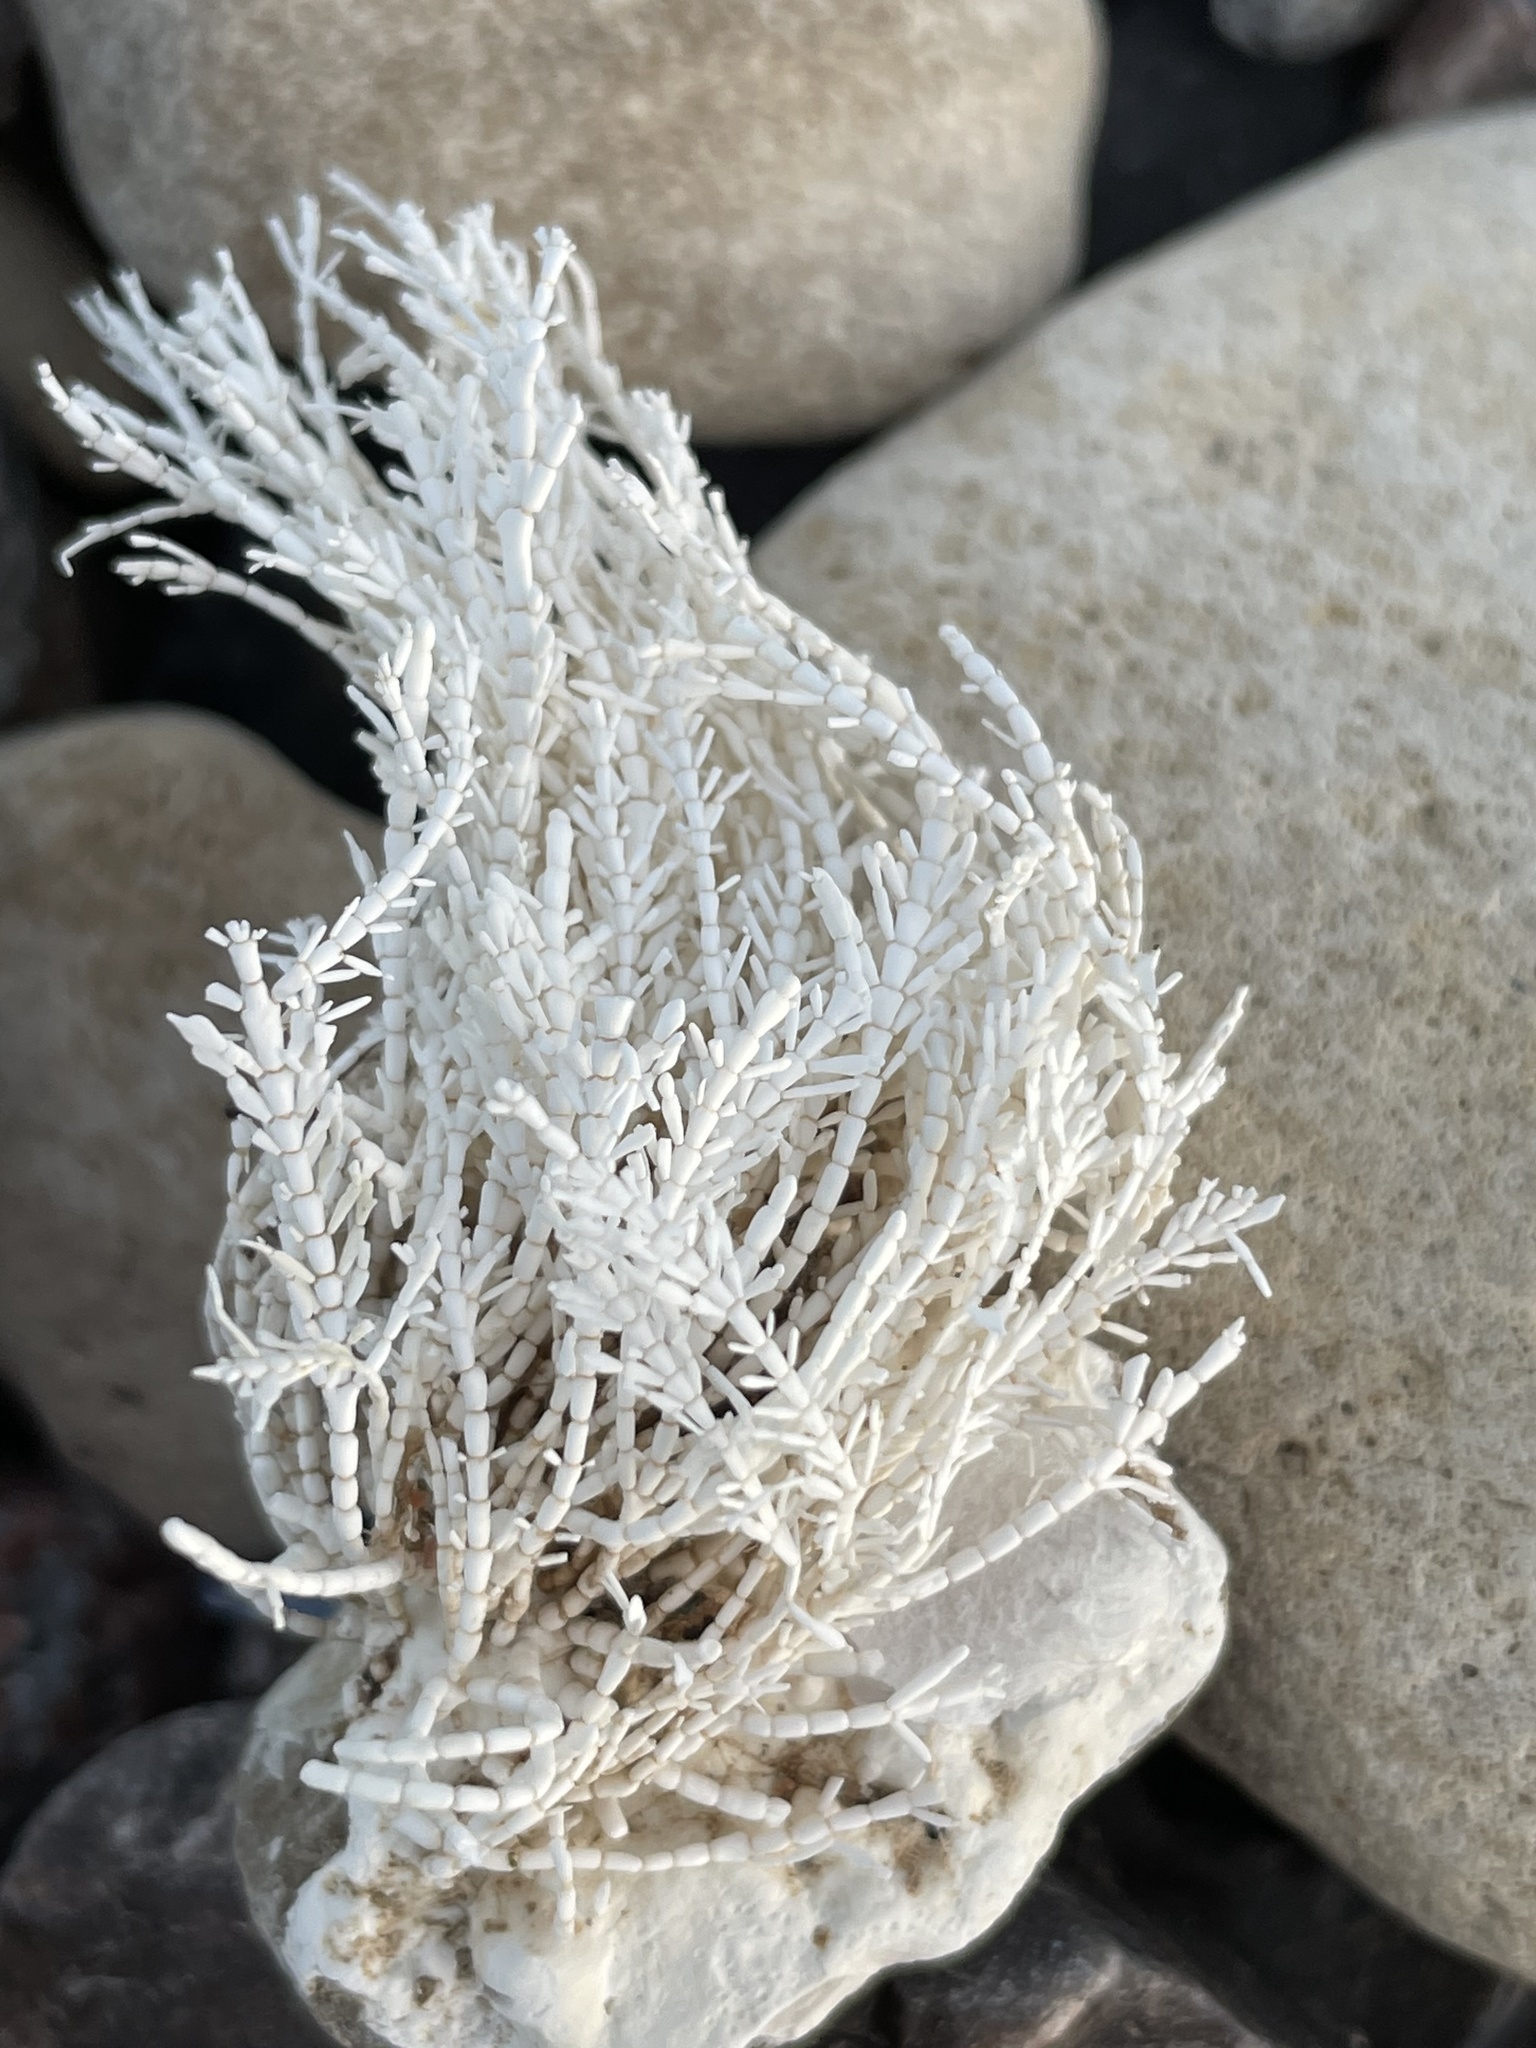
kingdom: Plantae
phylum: Rhodophyta
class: Florideophyceae
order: Corallinales
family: Corallinaceae
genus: Corallina
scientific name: Corallina officinalis
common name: Coral weed
